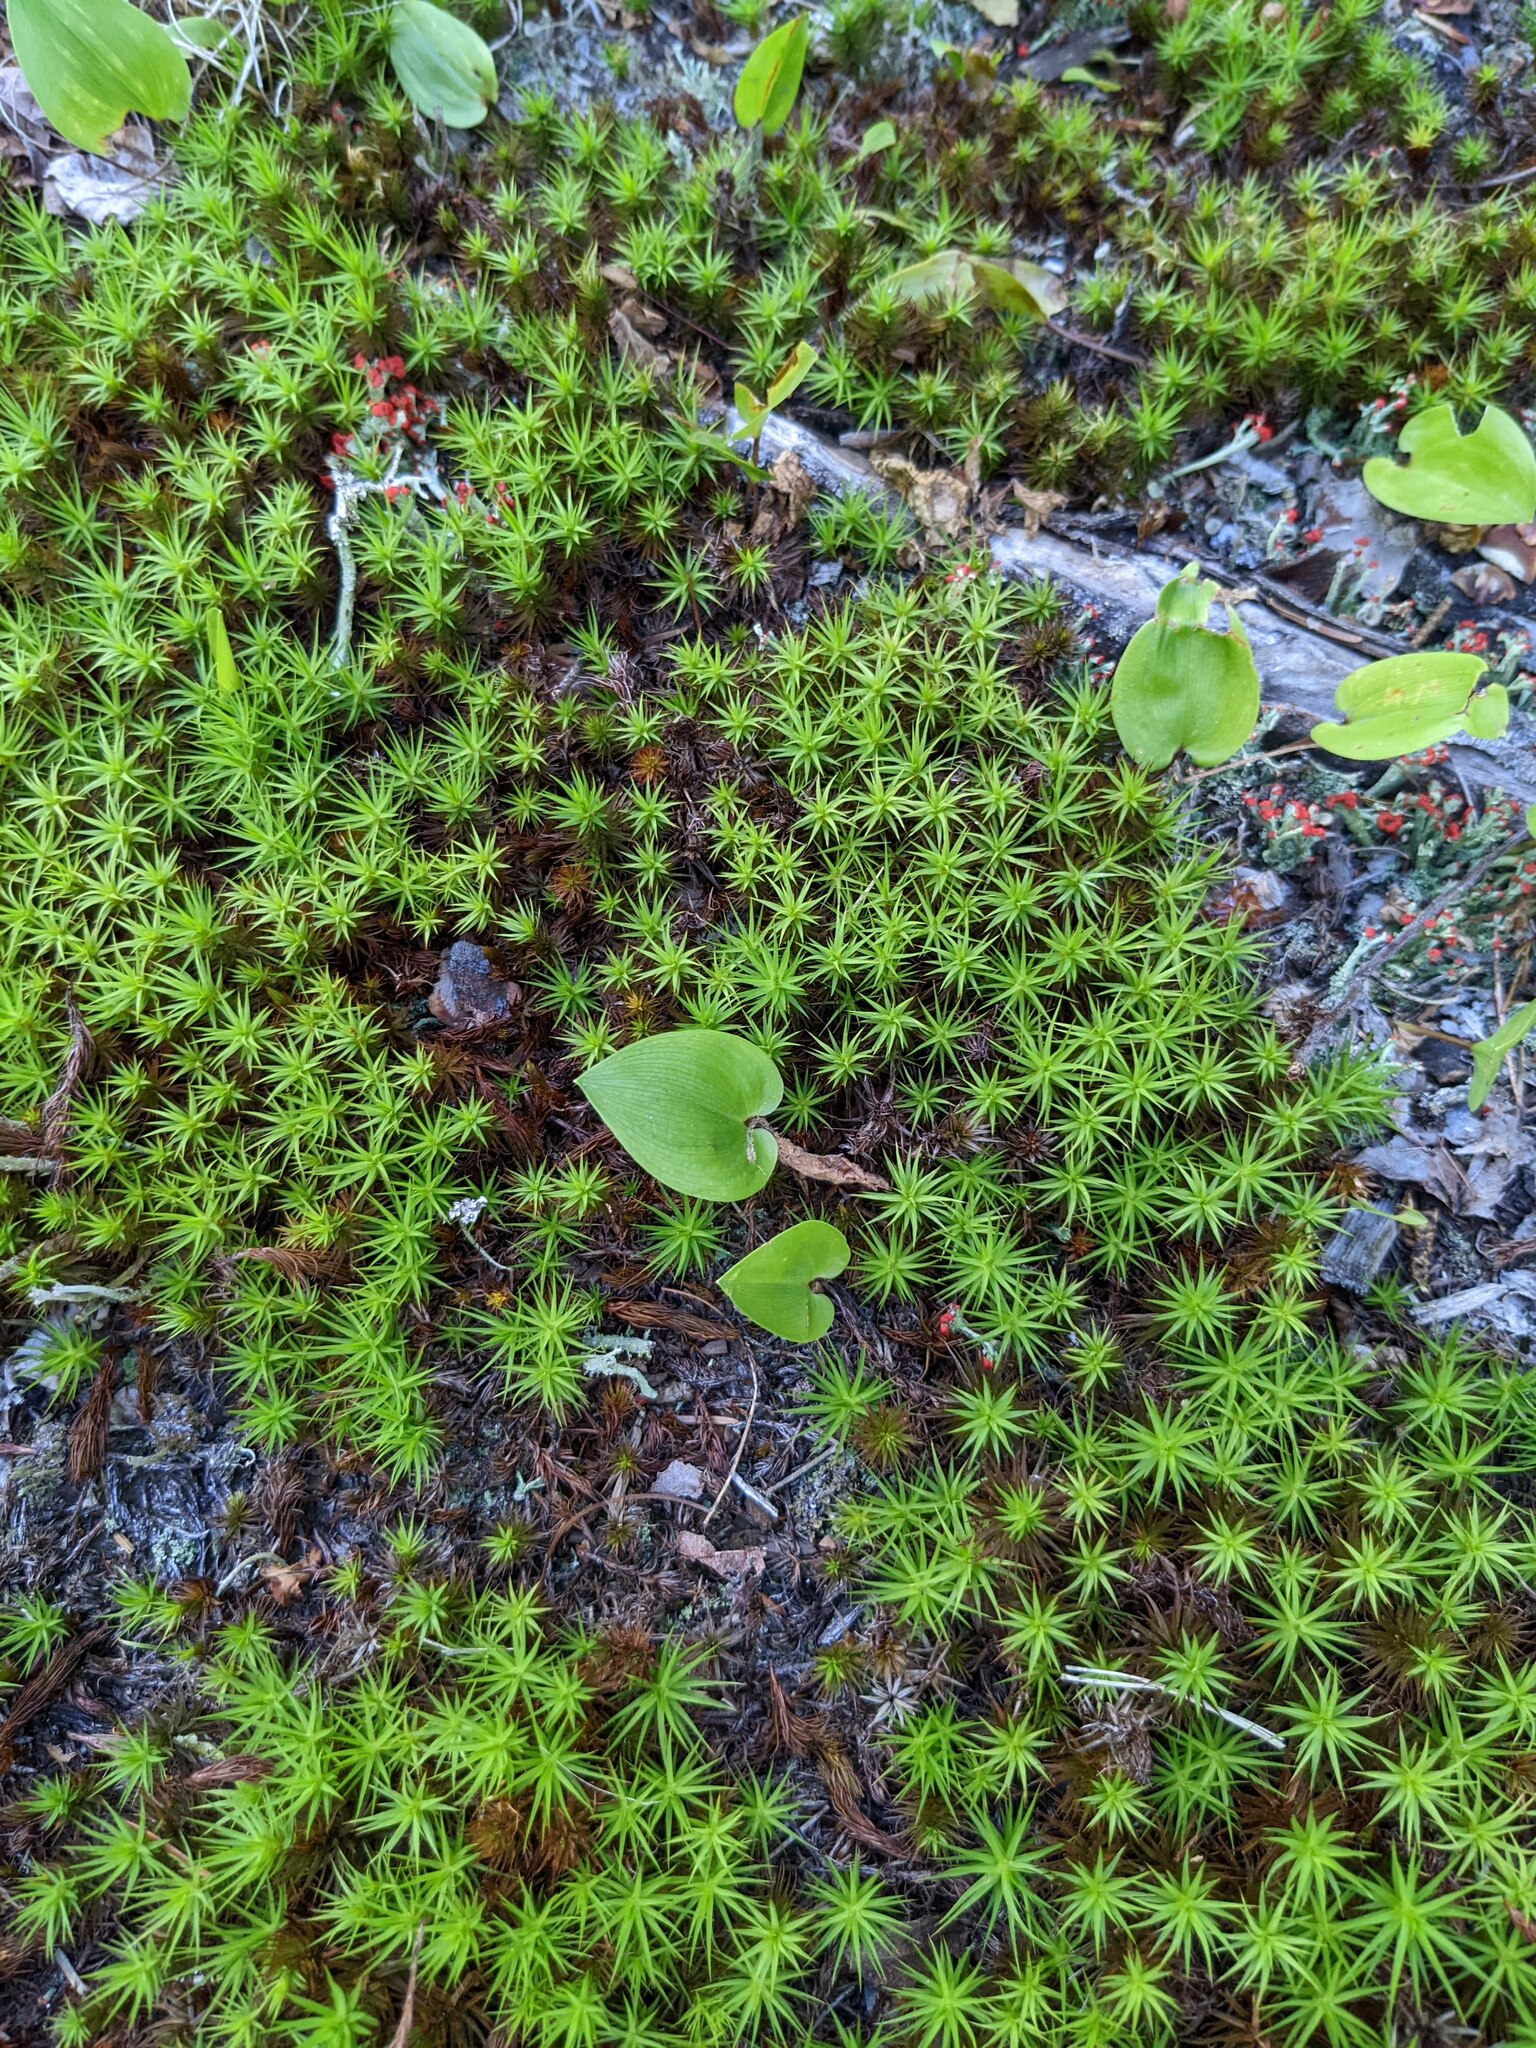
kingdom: Plantae
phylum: Tracheophyta
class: Liliopsida
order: Asparagales
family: Asparagaceae
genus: Maianthemum
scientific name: Maianthemum canadense
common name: False lily-of-the-valley
